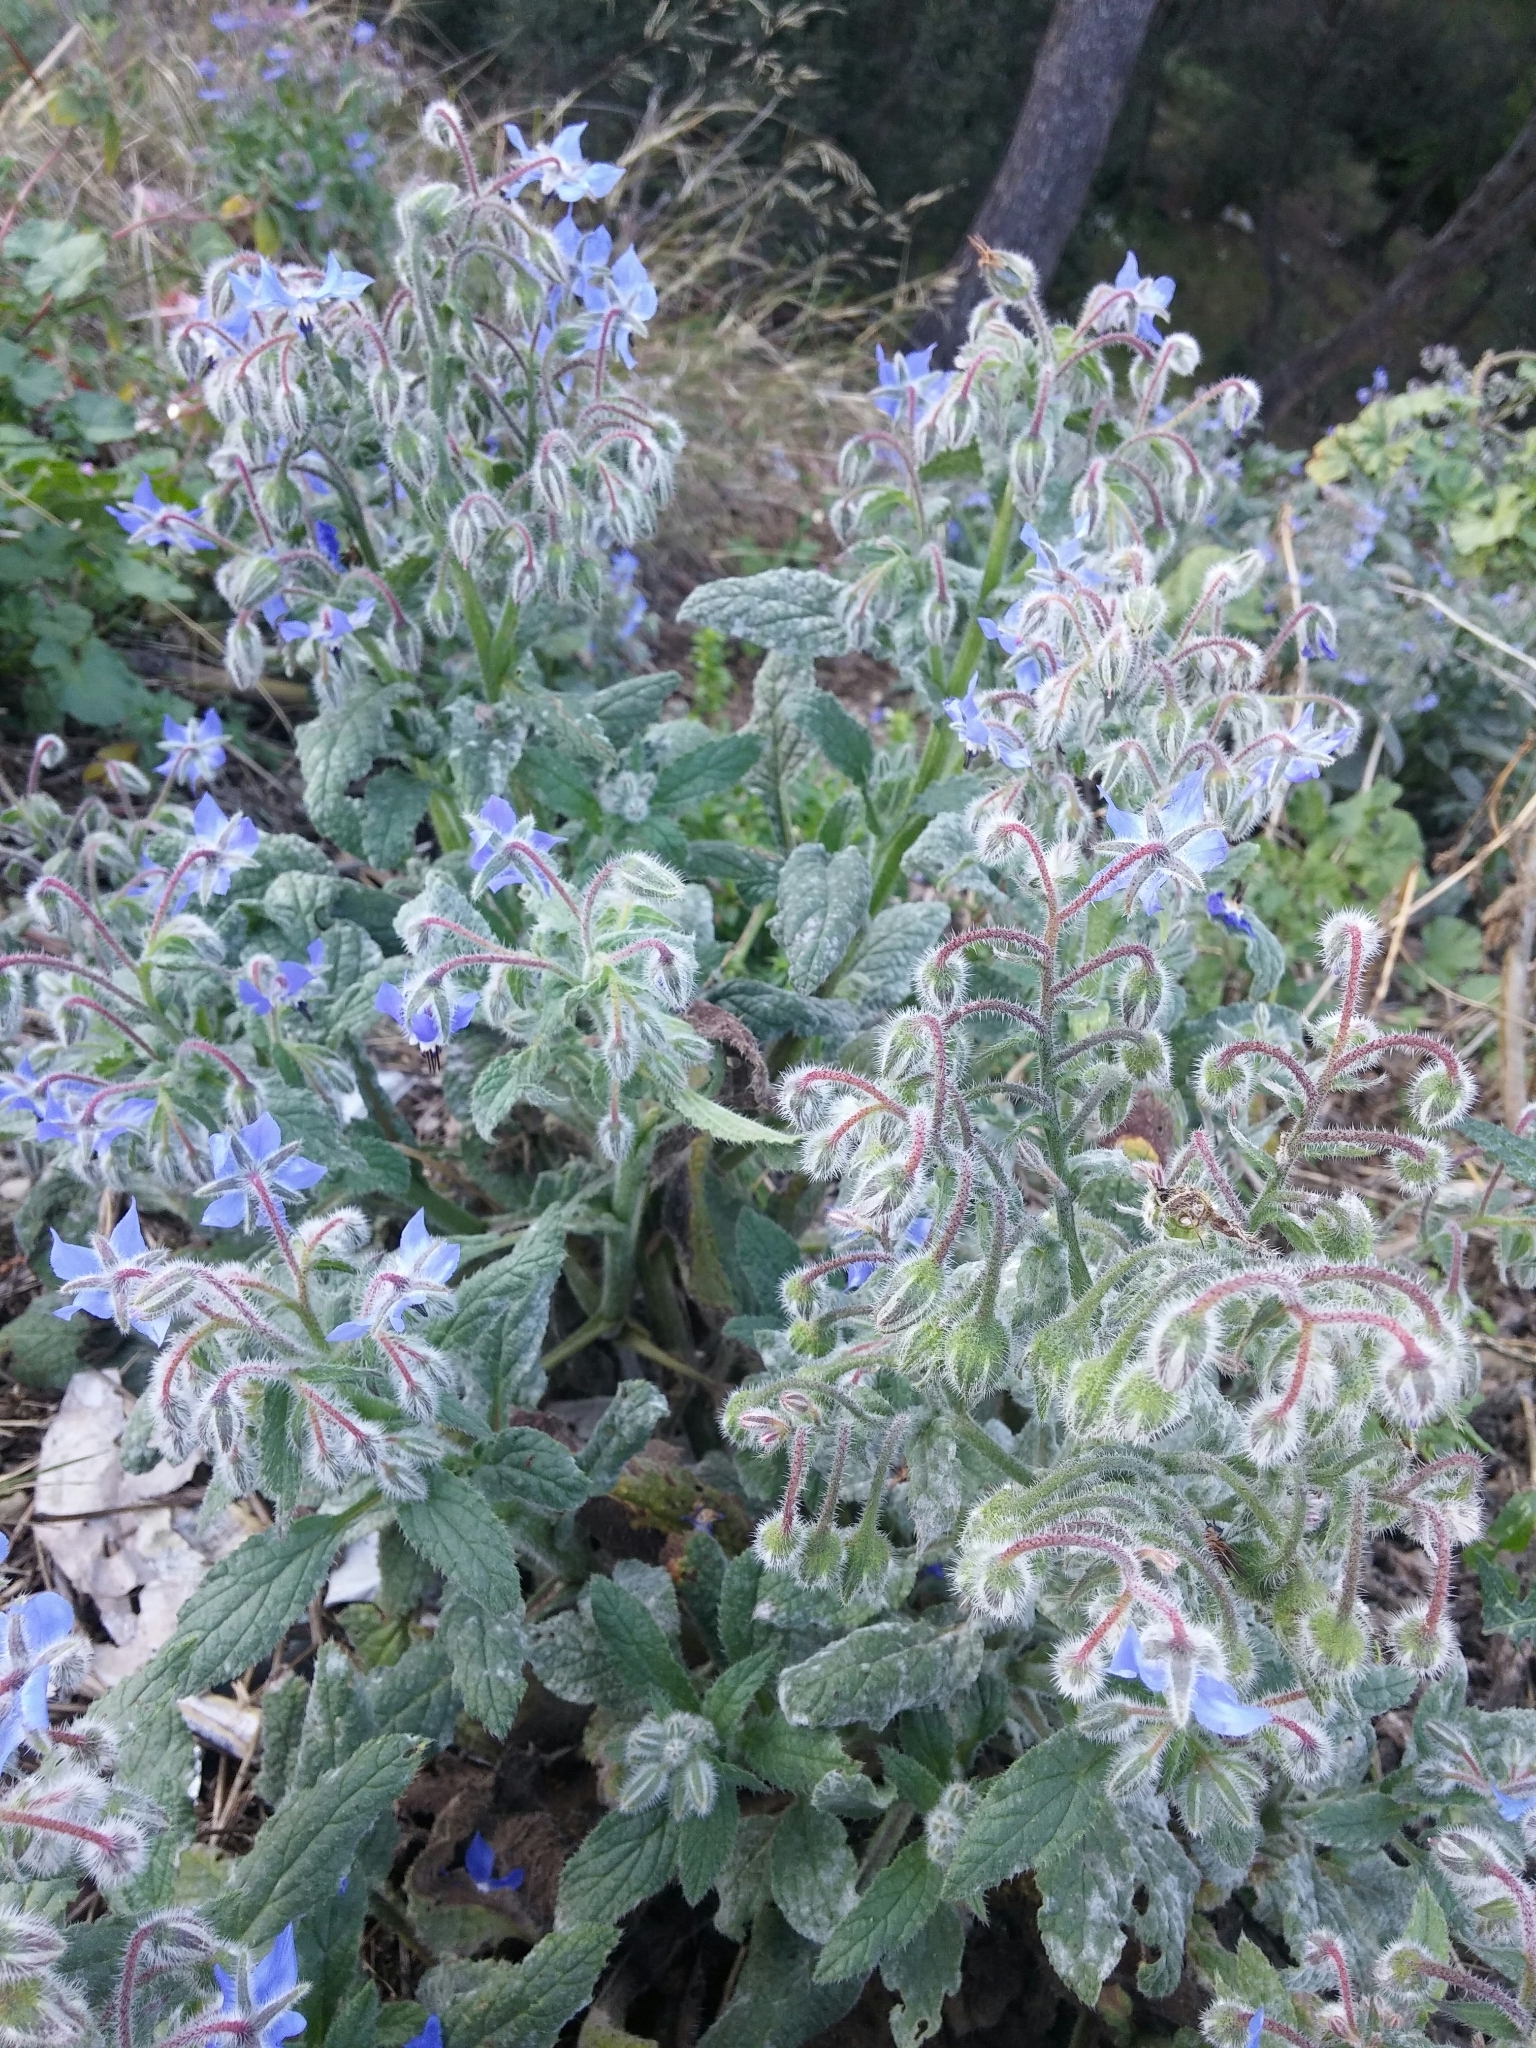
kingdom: Plantae
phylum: Tracheophyta
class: Magnoliopsida
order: Boraginales
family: Boraginaceae
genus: Borago
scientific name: Borago officinalis
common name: Borage
